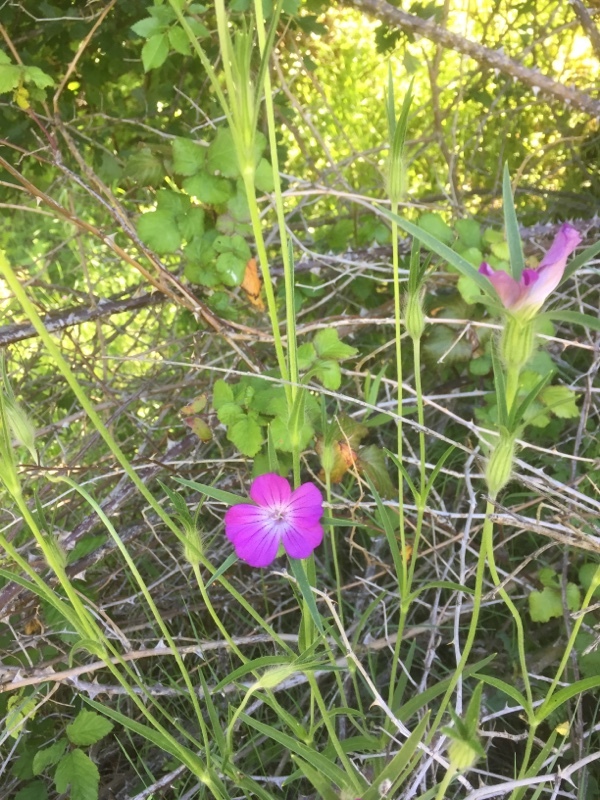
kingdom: Plantae
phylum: Tracheophyta
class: Magnoliopsida
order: Caryophyllales
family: Caryophyllaceae
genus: Agrostemma
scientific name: Agrostemma githago
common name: Common corncockle
